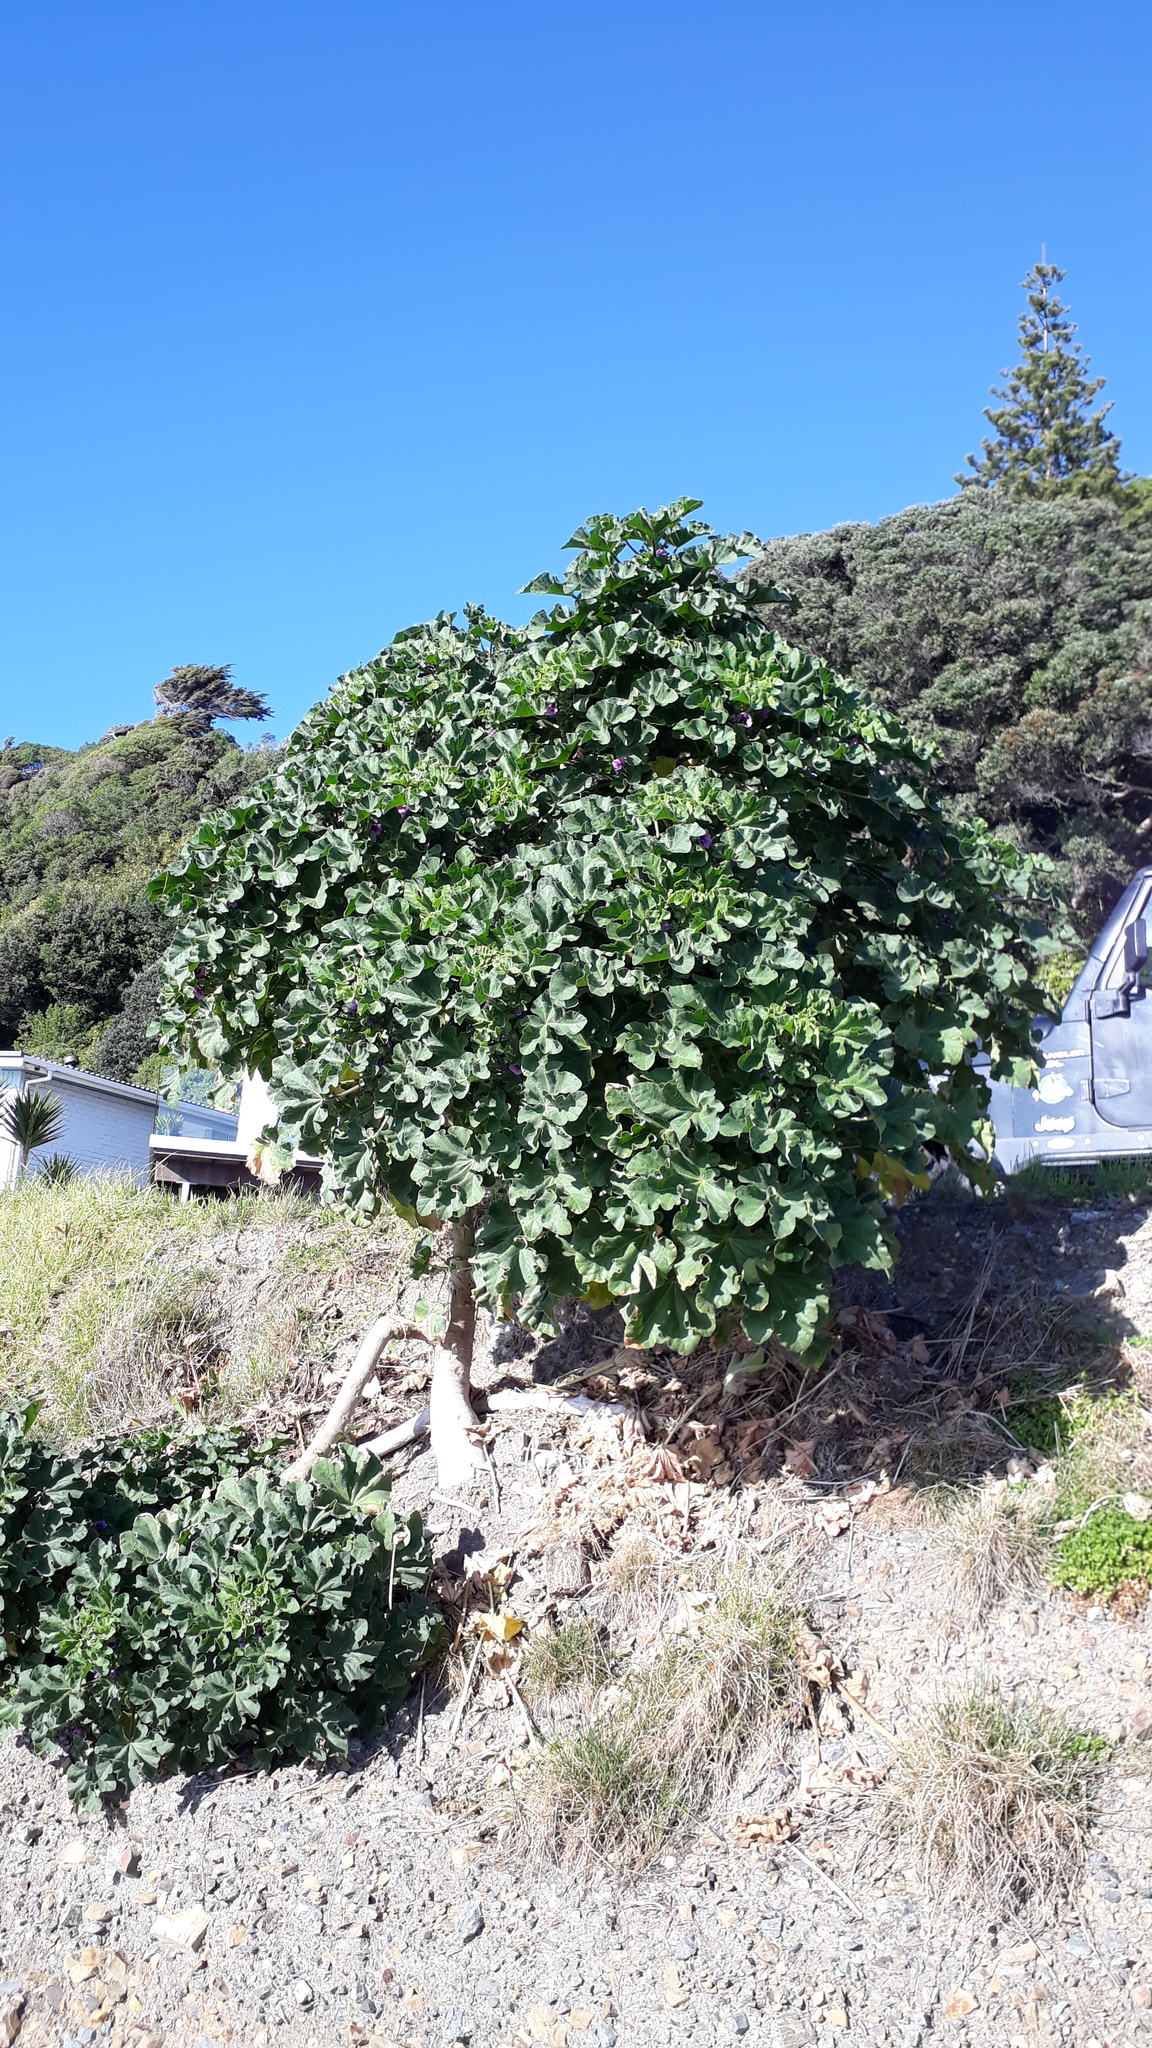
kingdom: Plantae
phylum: Tracheophyta
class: Magnoliopsida
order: Malvales
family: Malvaceae
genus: Malva
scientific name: Malva arborea
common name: Tree mallow
